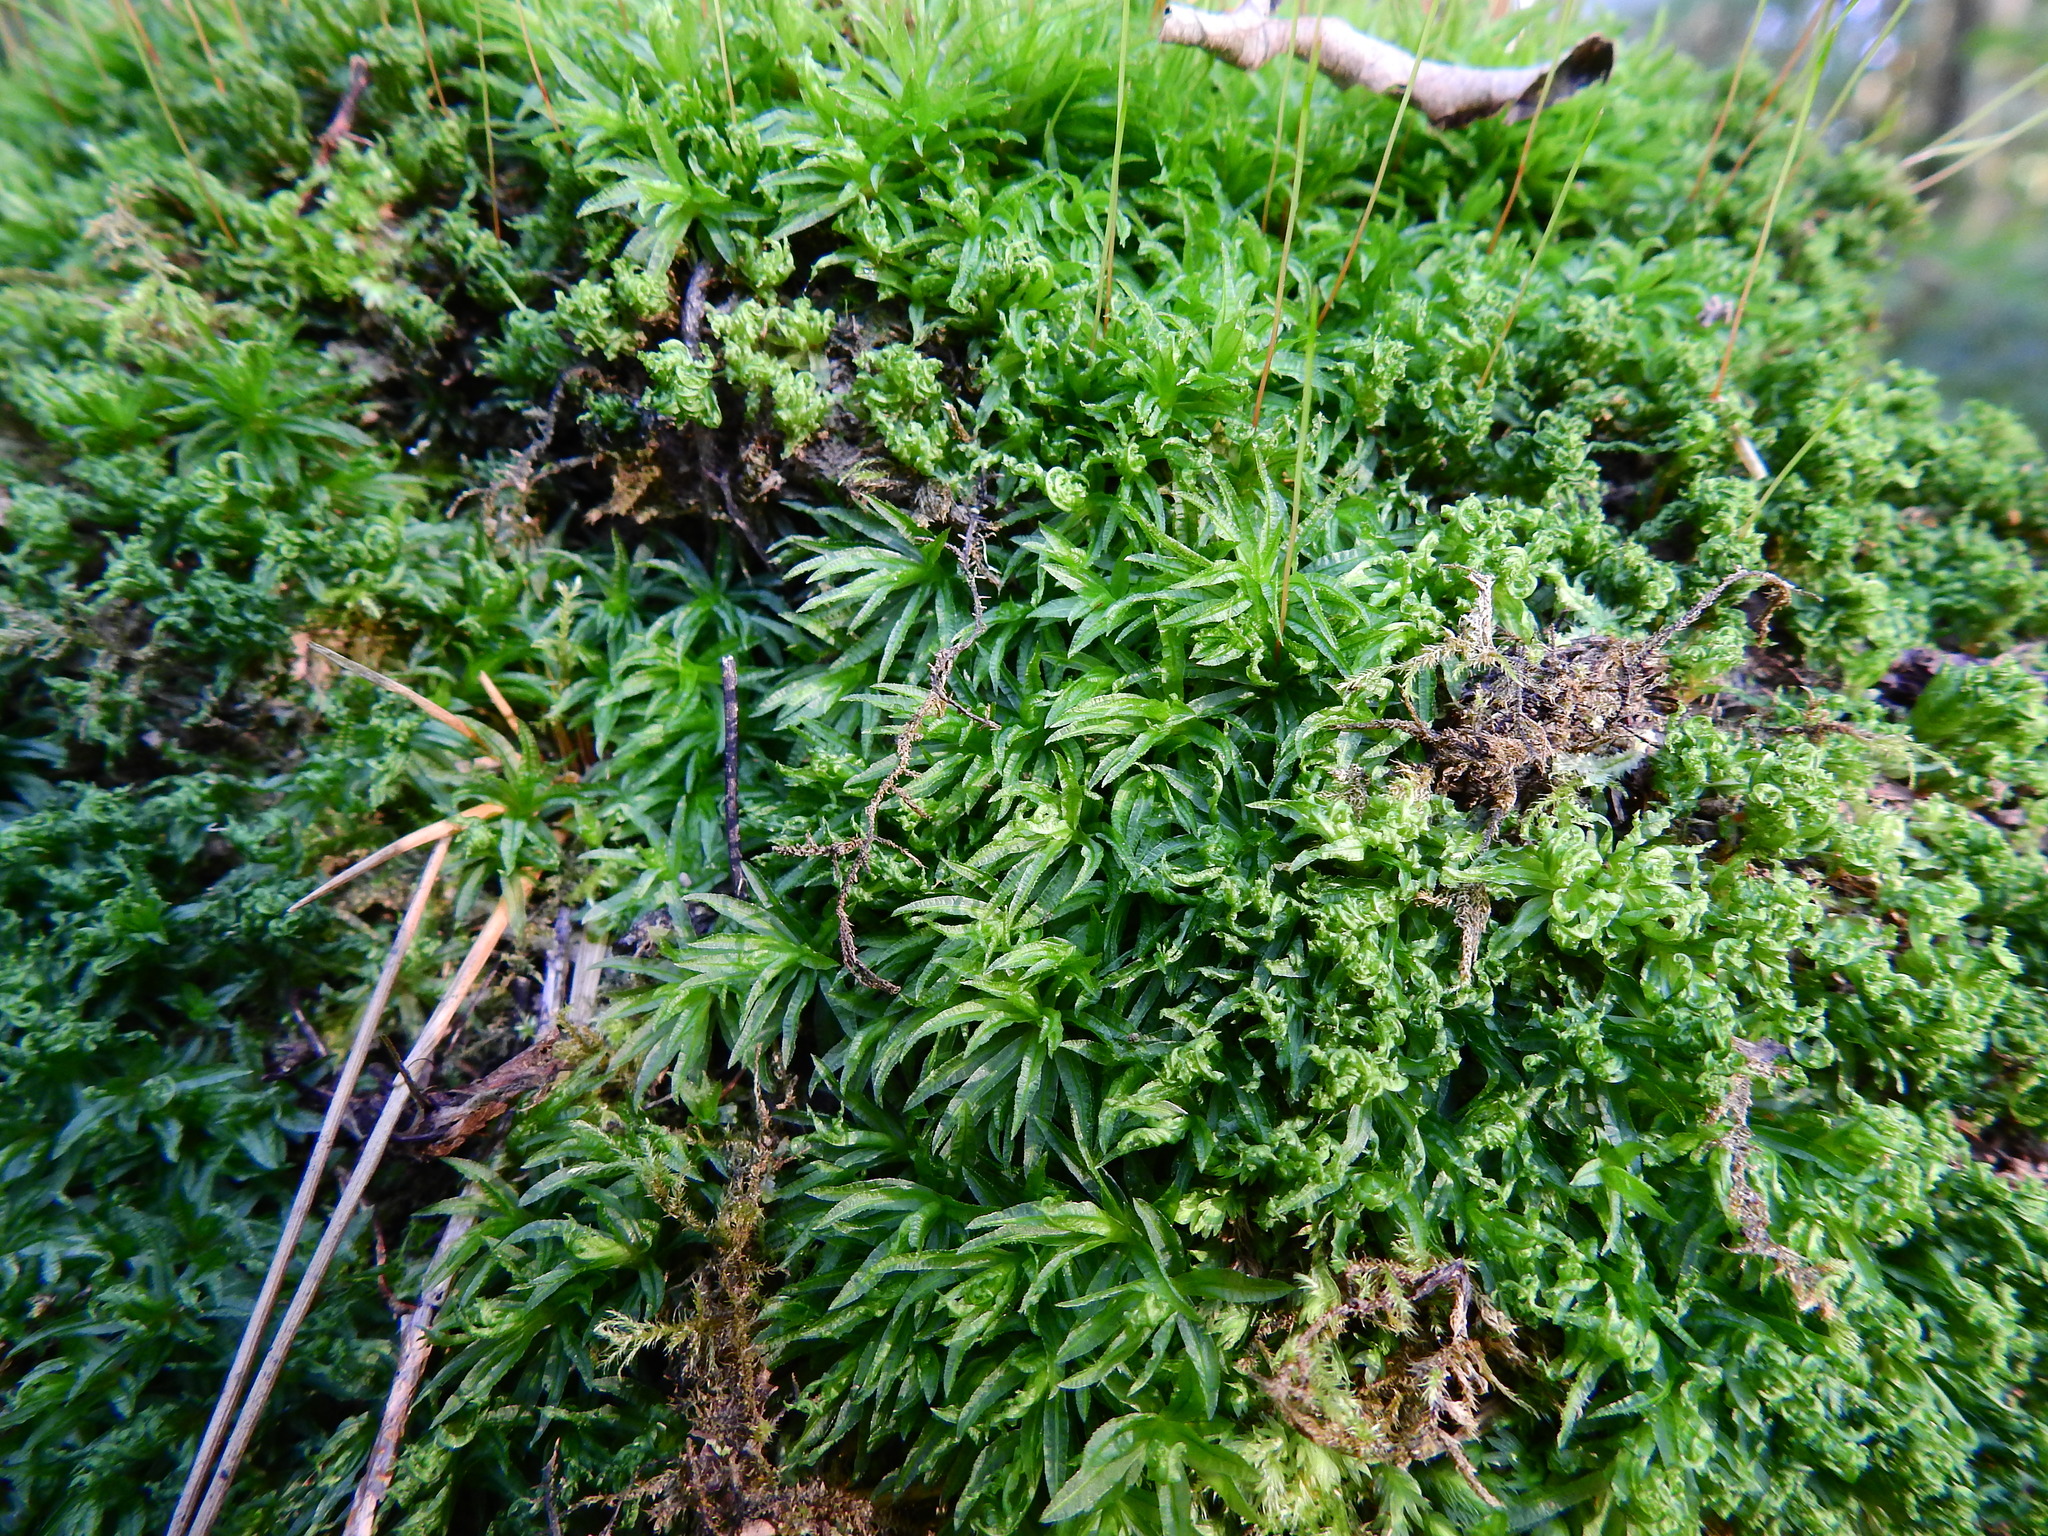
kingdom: Plantae
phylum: Bryophyta
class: Polytrichopsida
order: Polytrichales
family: Polytrichaceae
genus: Atrichum
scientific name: Atrichum undulatum
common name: Common smoothcap
